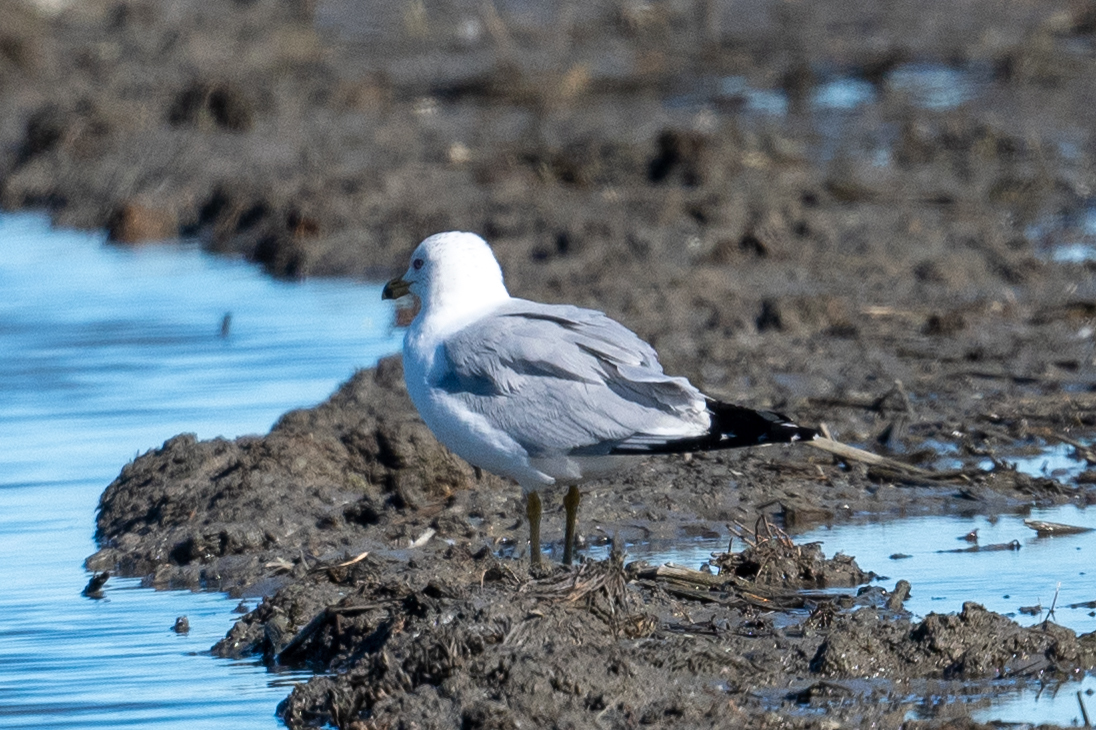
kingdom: Animalia
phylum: Chordata
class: Aves
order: Charadriiformes
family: Laridae
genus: Larus
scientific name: Larus delawarensis
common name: Ring-billed gull
